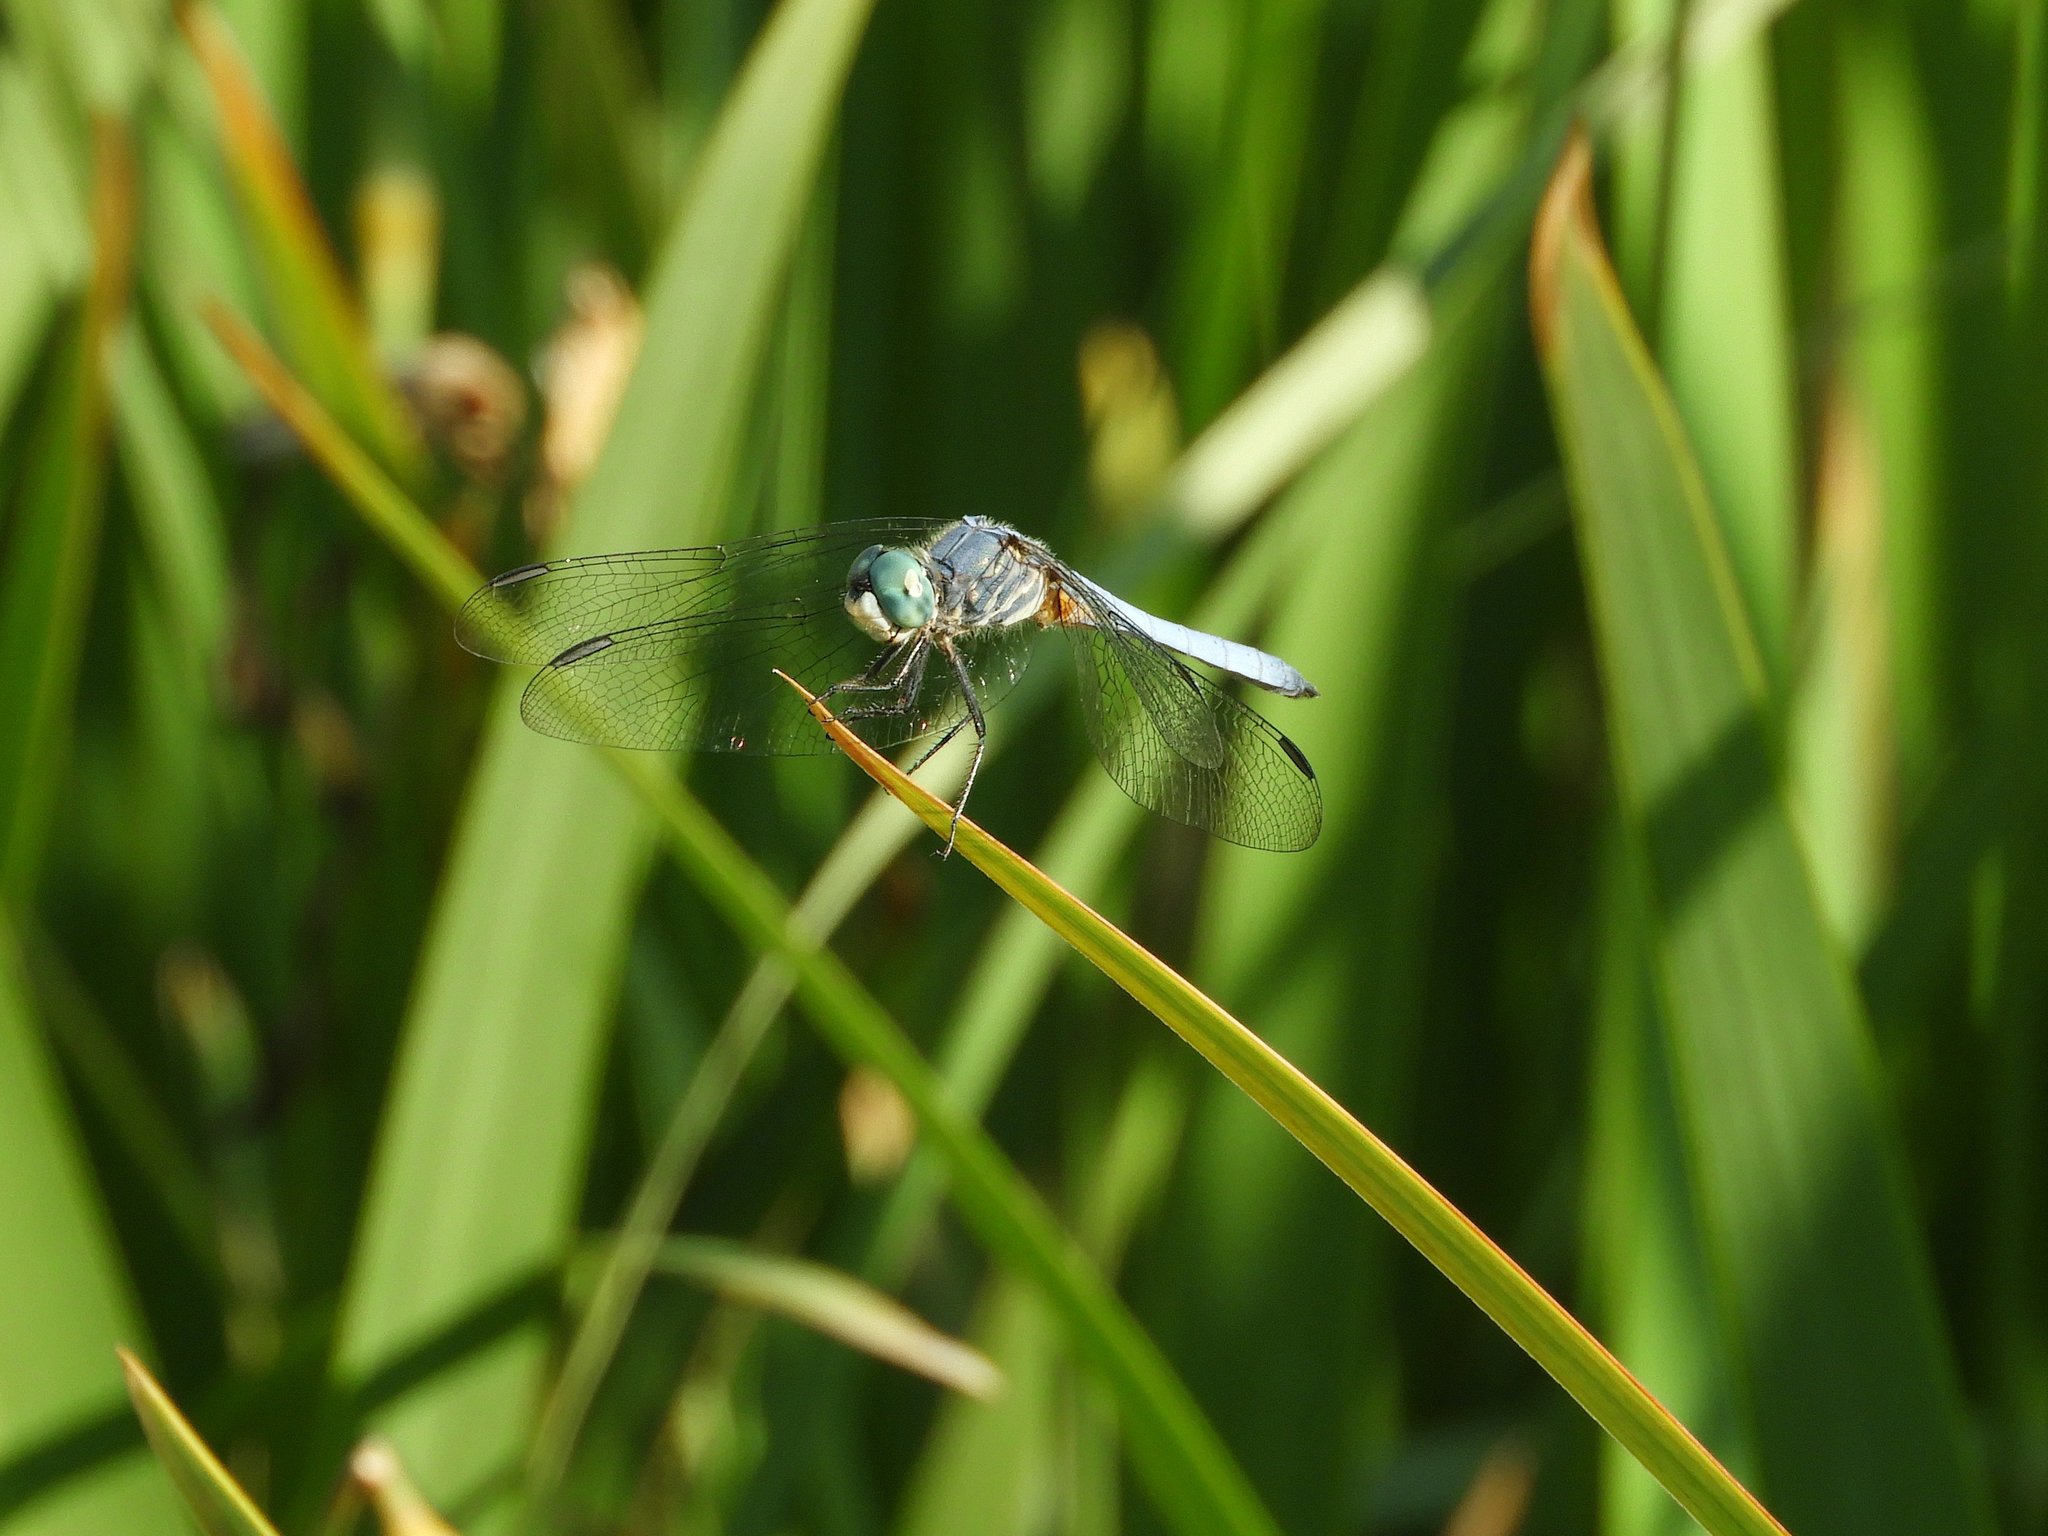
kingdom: Animalia
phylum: Arthropoda
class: Insecta
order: Odonata
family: Libellulidae
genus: Pachydiplax
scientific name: Pachydiplax longipennis
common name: Blue dasher
